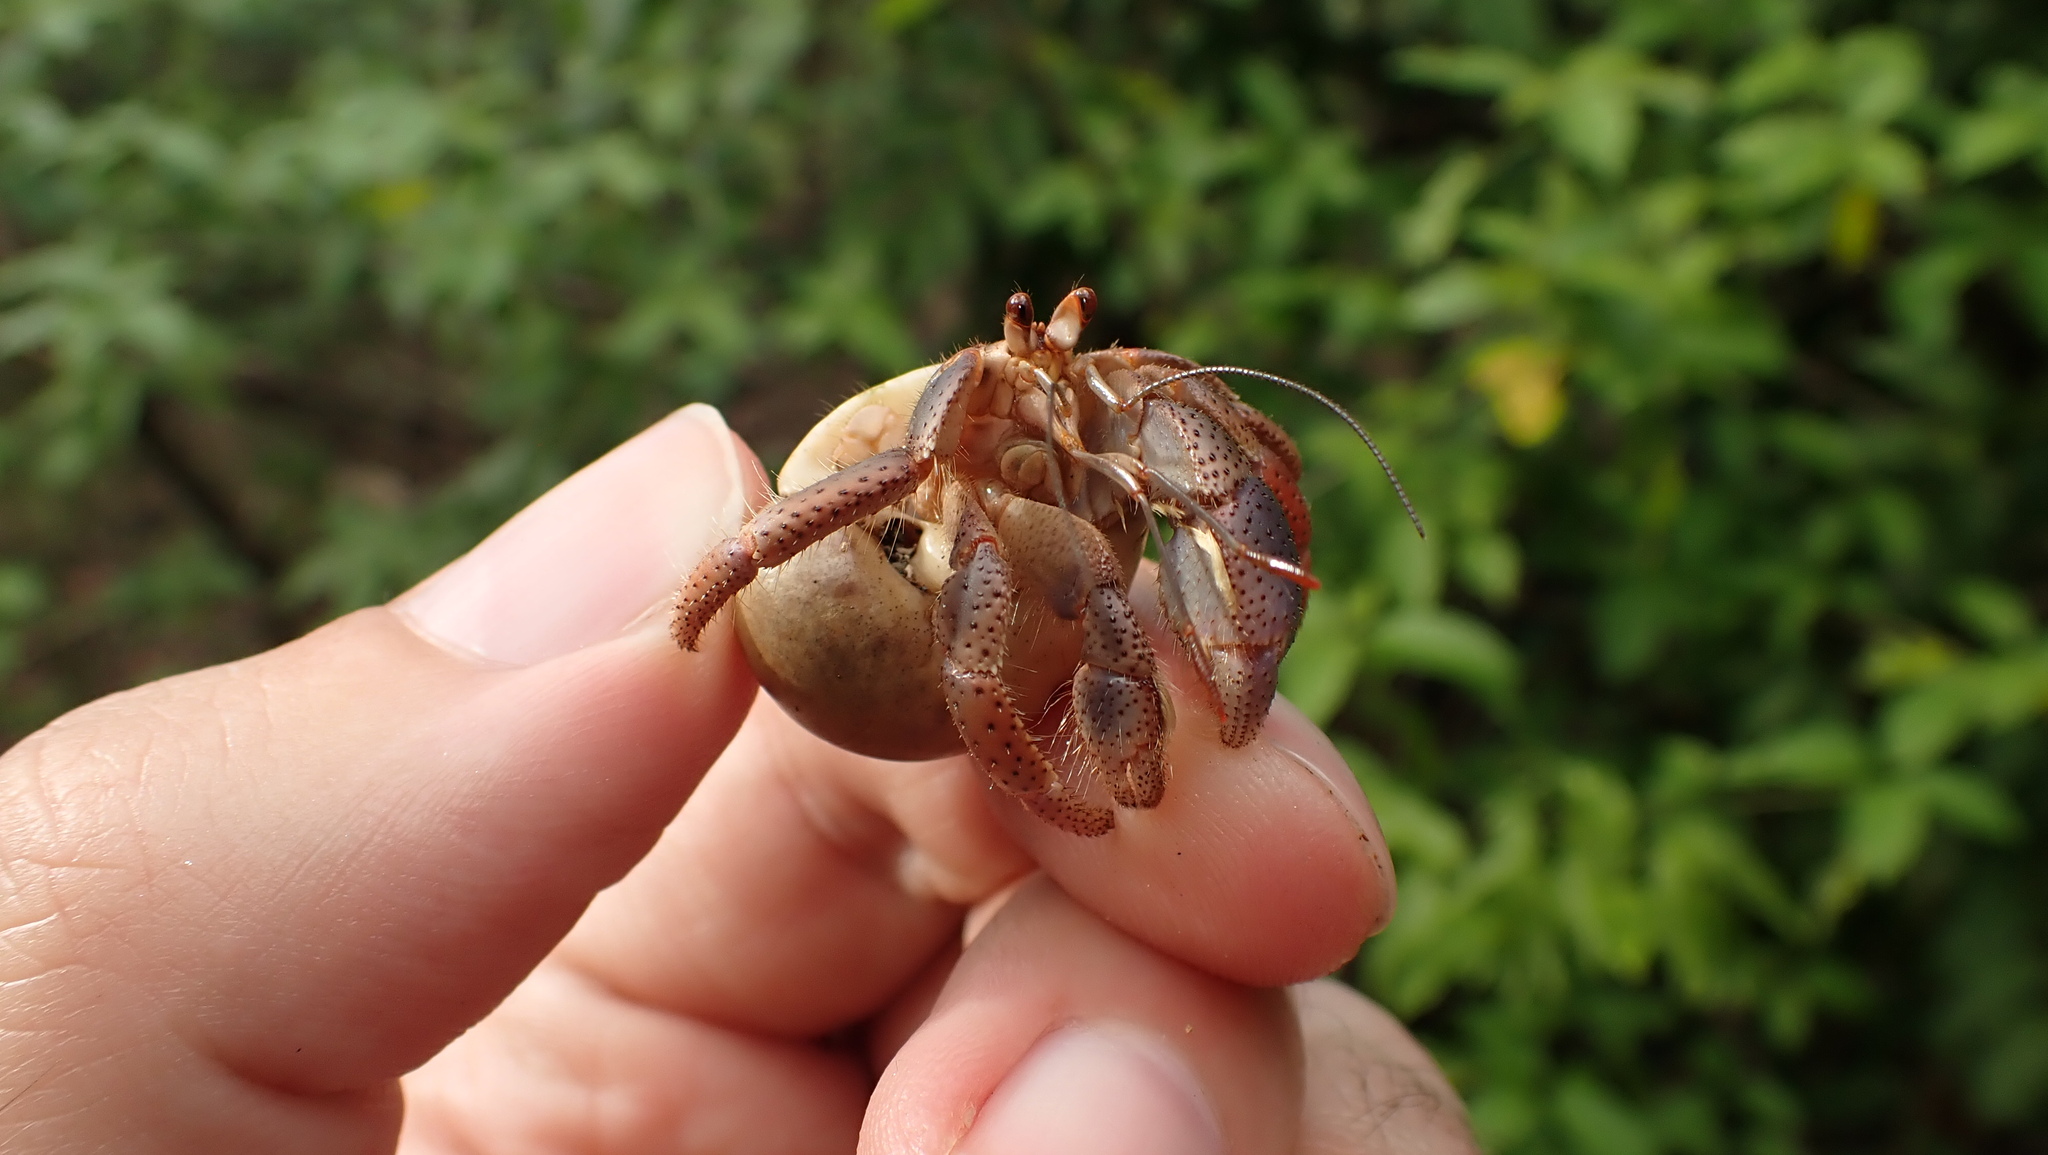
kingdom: Animalia
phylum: Arthropoda
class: Malacostraca
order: Decapoda
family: Coenobitidae
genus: Coenobita
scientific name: Coenobita clypeatus
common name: Caribbean hermit crab
